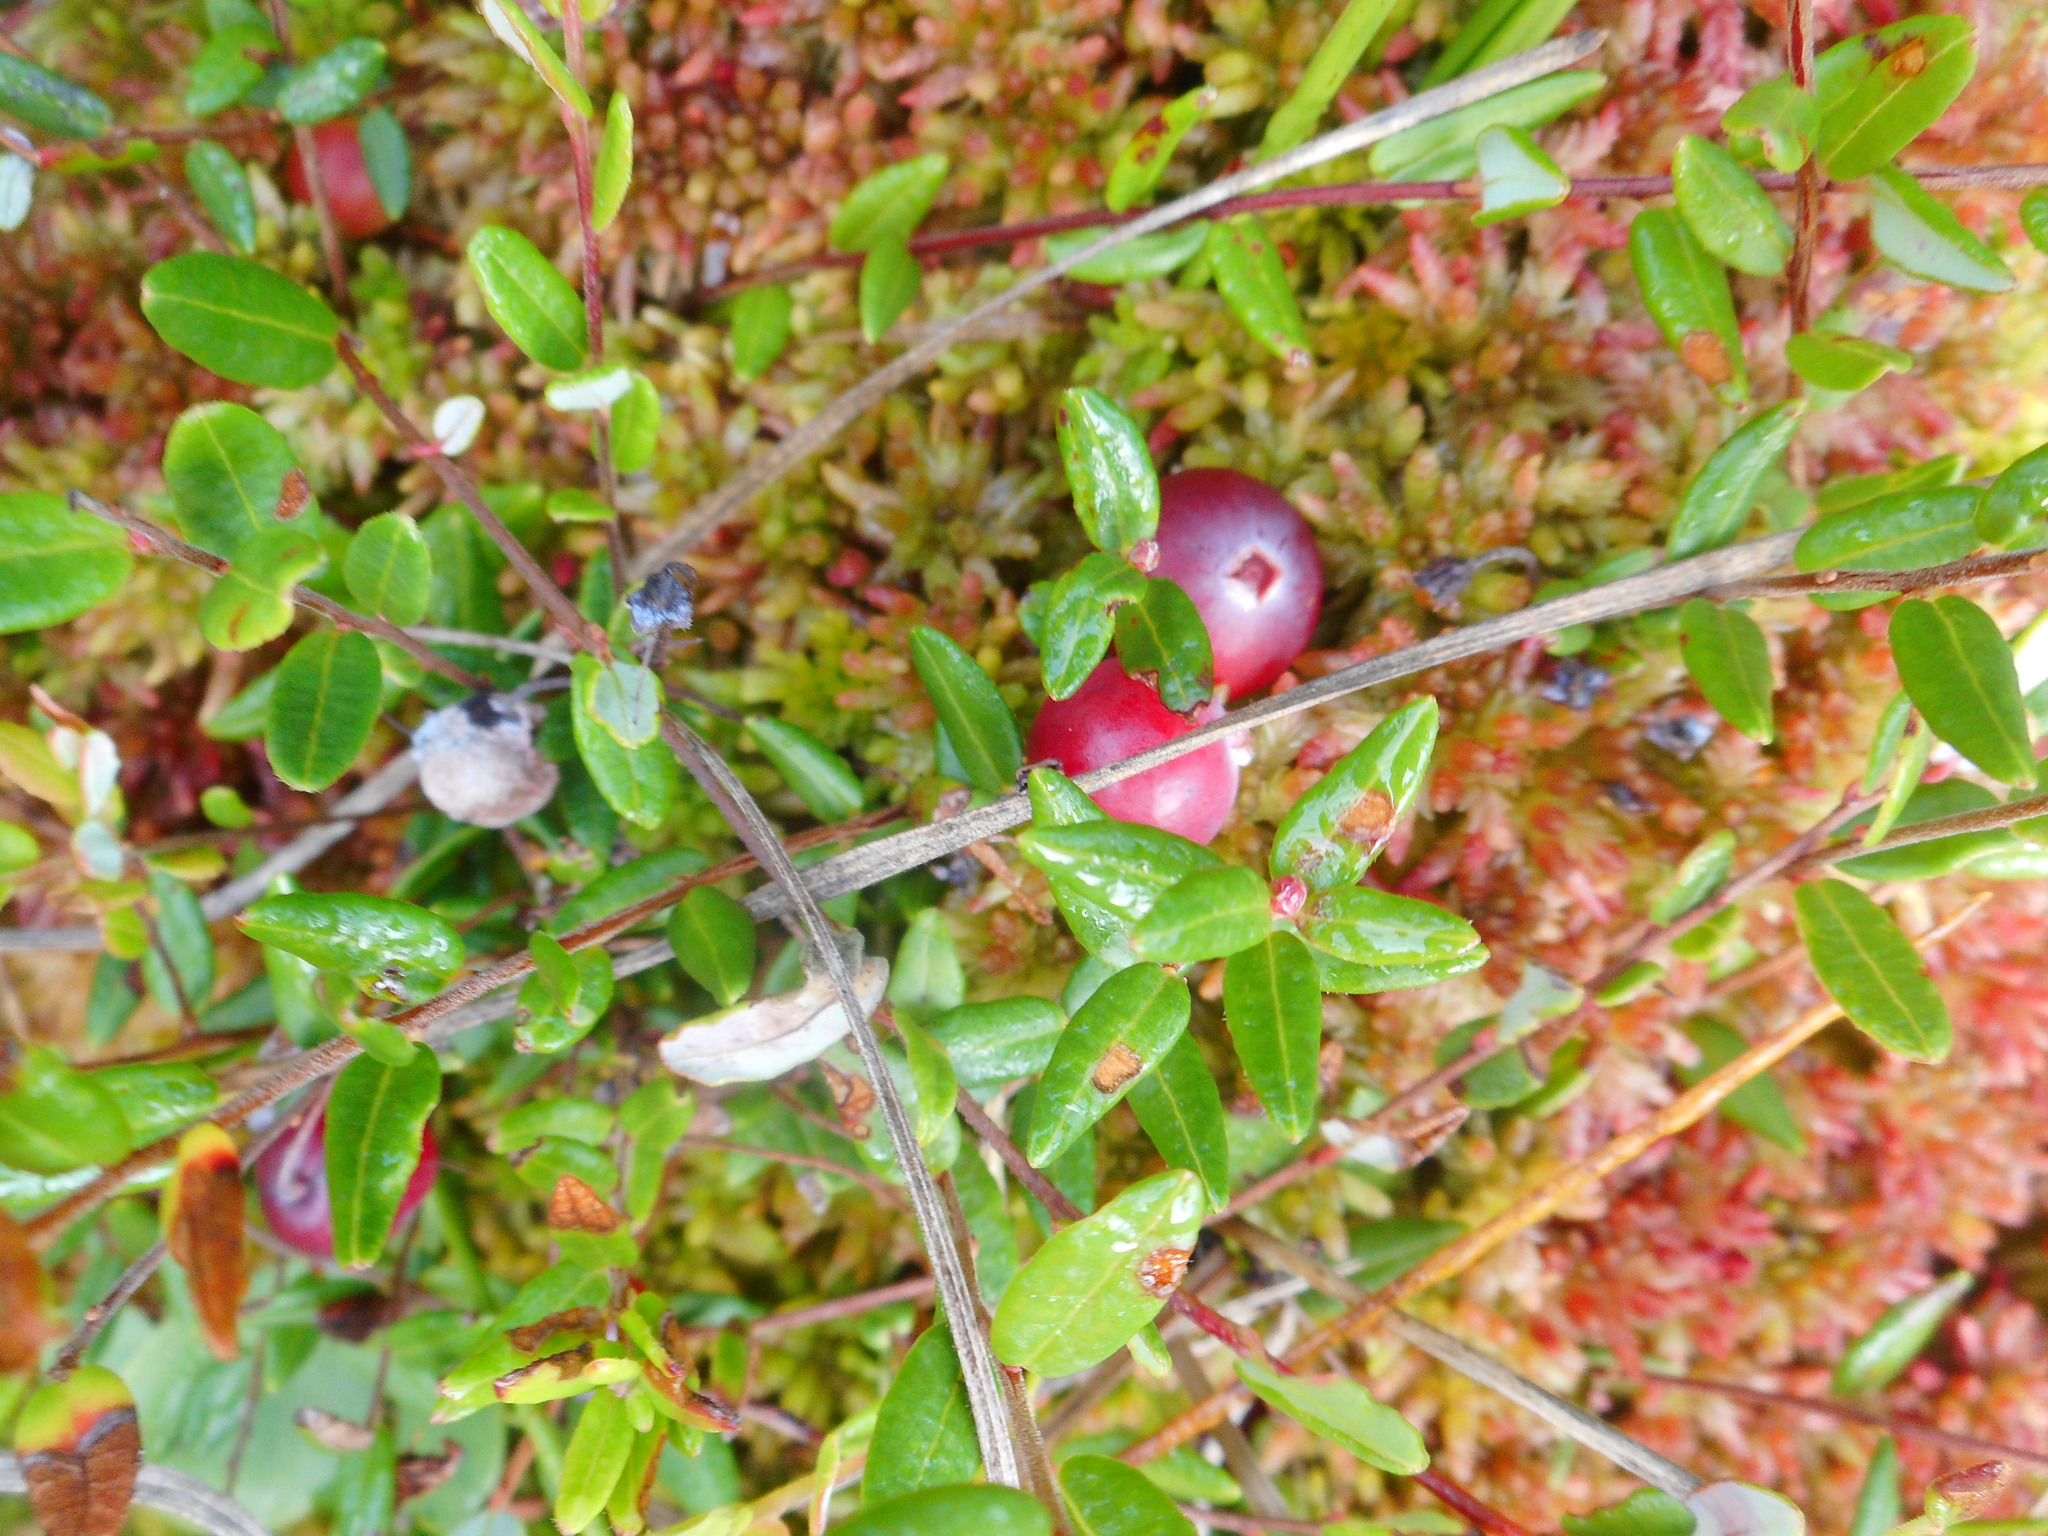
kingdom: Plantae
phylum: Tracheophyta
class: Magnoliopsida
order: Ericales
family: Ericaceae
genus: Vaccinium
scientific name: Vaccinium oxycoccos
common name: Cranberry
